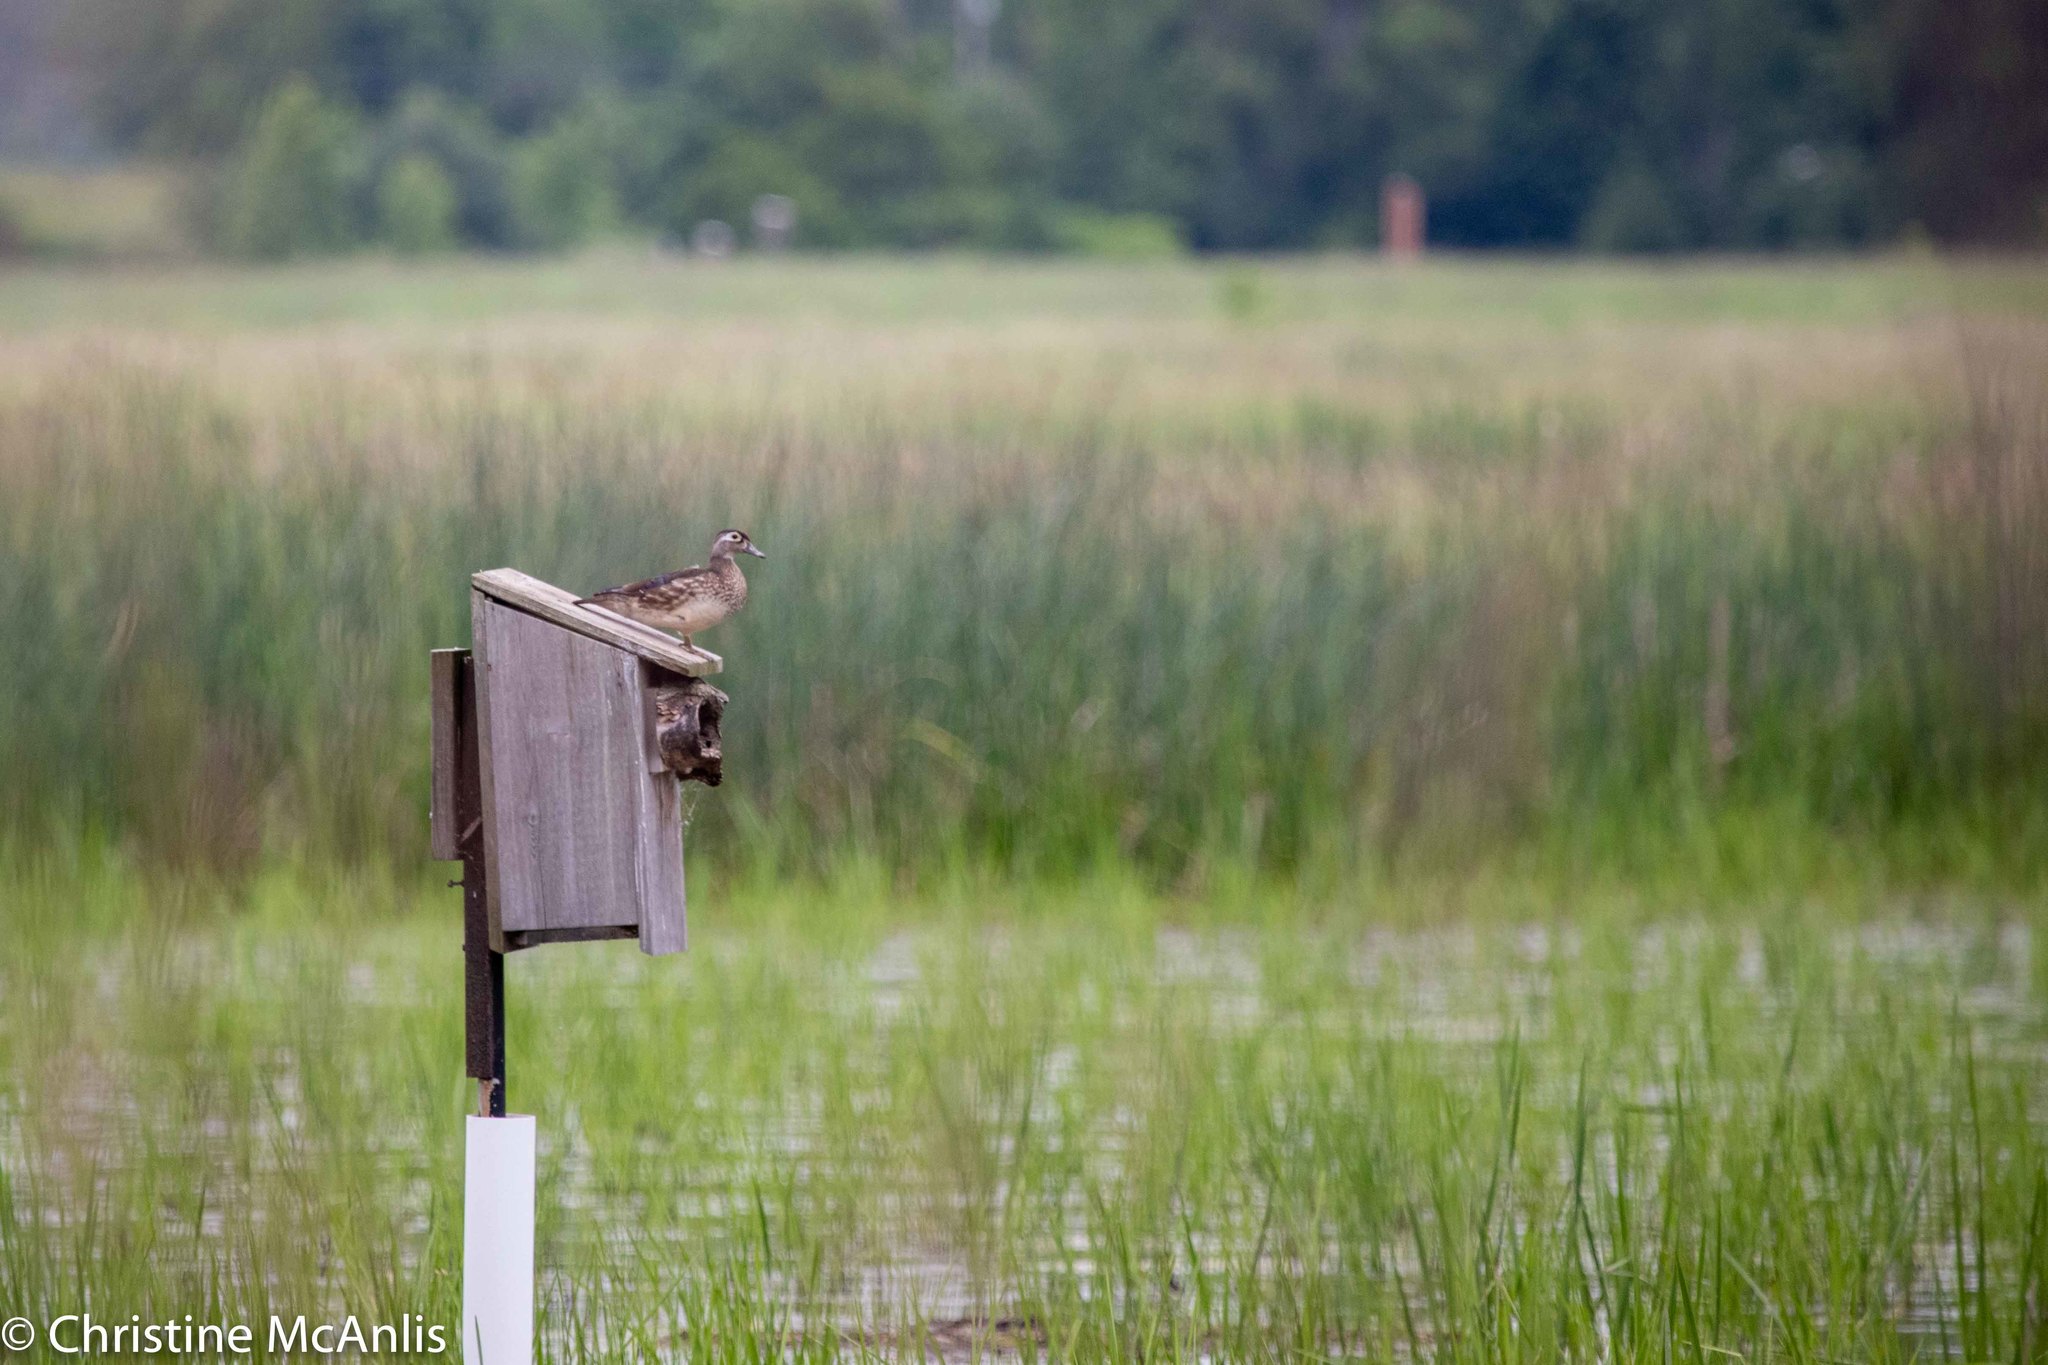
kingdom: Animalia
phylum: Chordata
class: Aves
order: Anseriformes
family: Anatidae
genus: Aix
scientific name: Aix sponsa
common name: Wood duck
